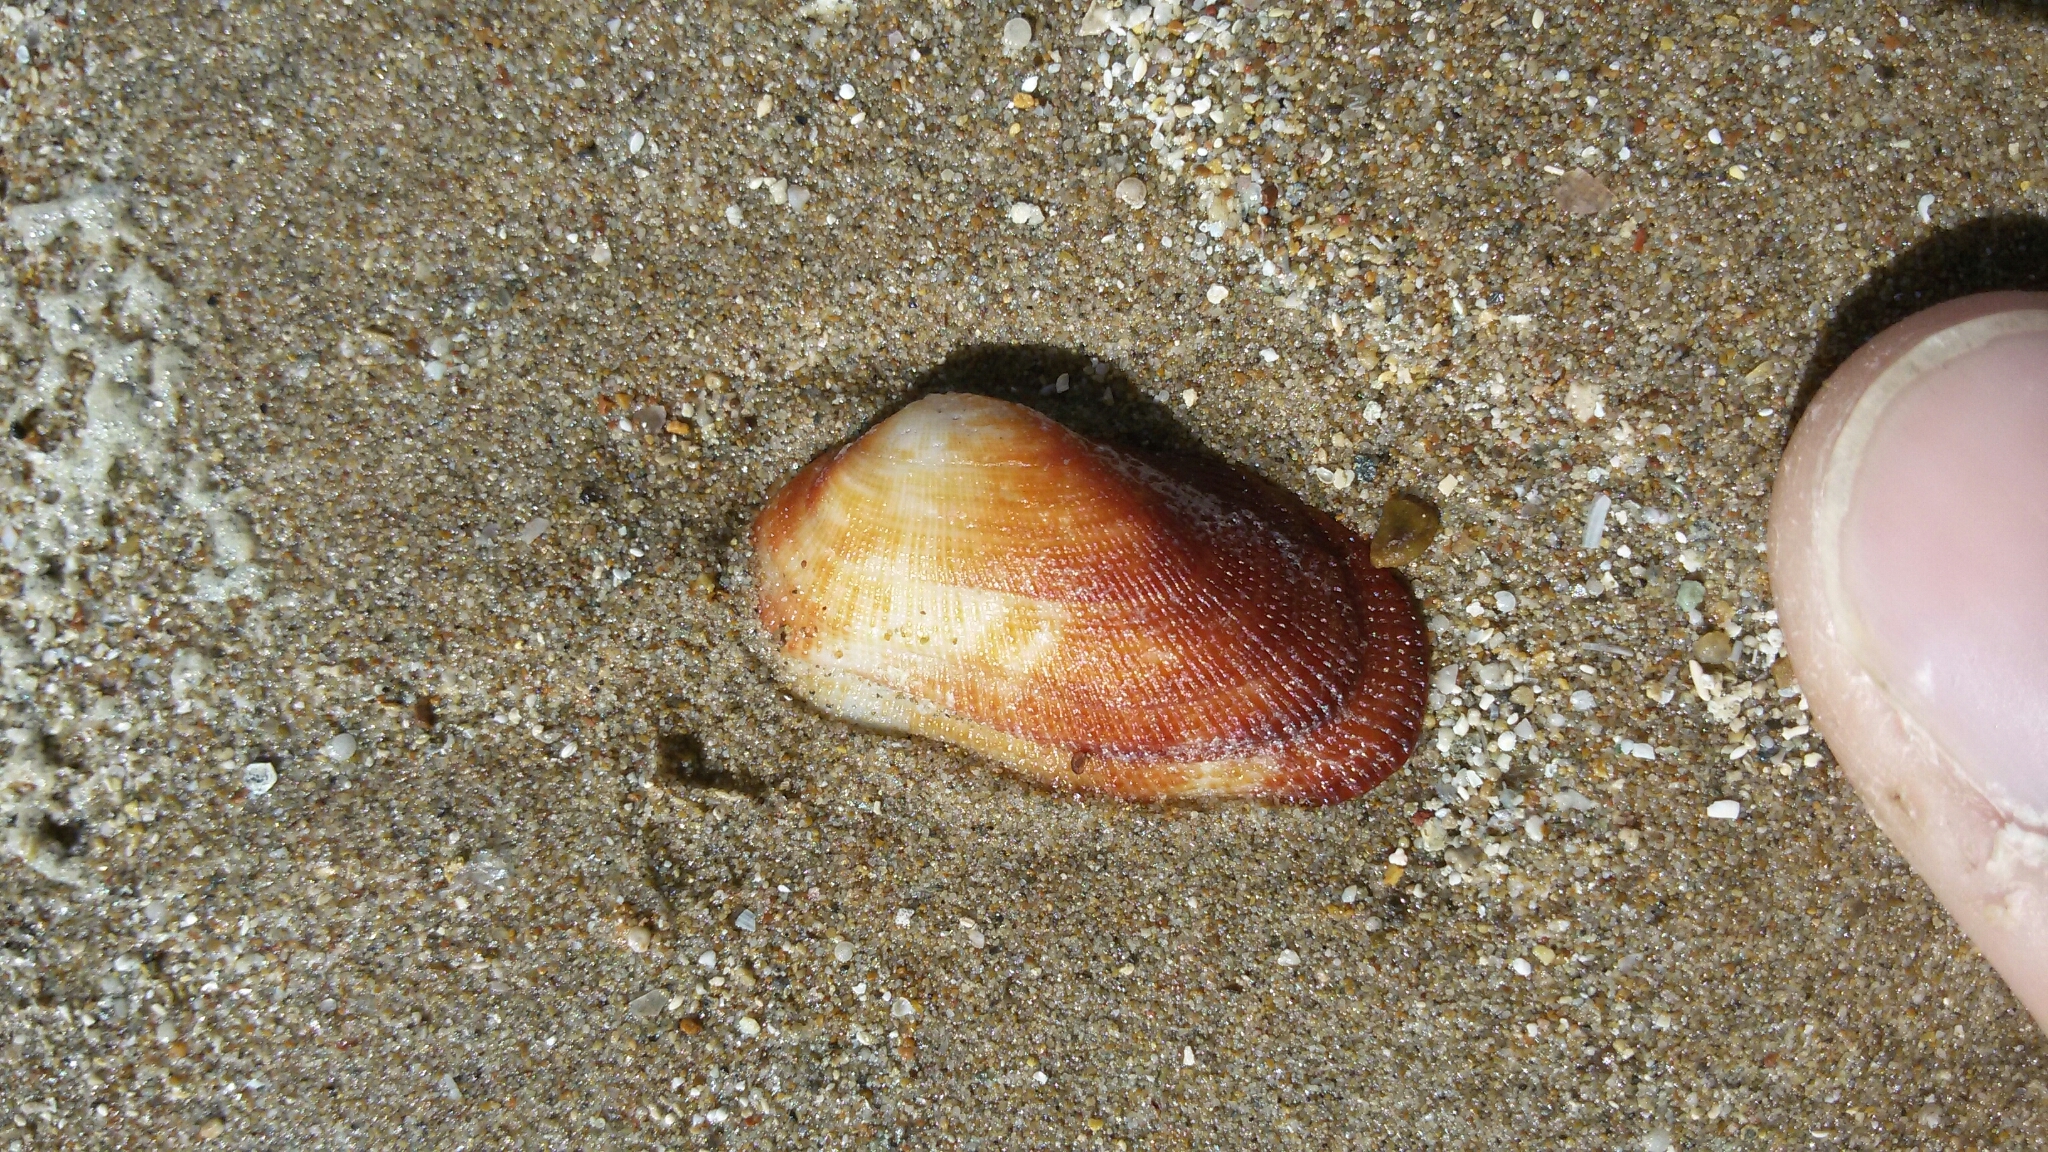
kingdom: Animalia
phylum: Mollusca
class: Bivalvia
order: Arcida
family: Arcidae
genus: Barbatia
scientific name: Barbatia barbata
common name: Bearded ark
